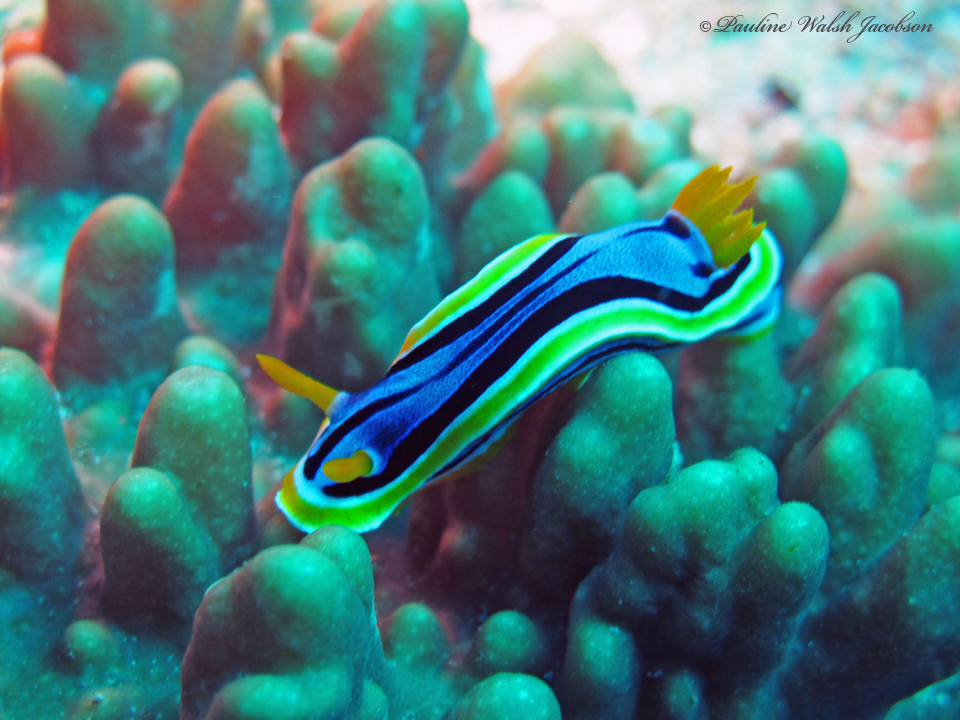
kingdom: Animalia
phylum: Mollusca
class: Gastropoda
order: Nudibranchia
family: Chromodorididae
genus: Chromodoris
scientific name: Chromodoris annae
